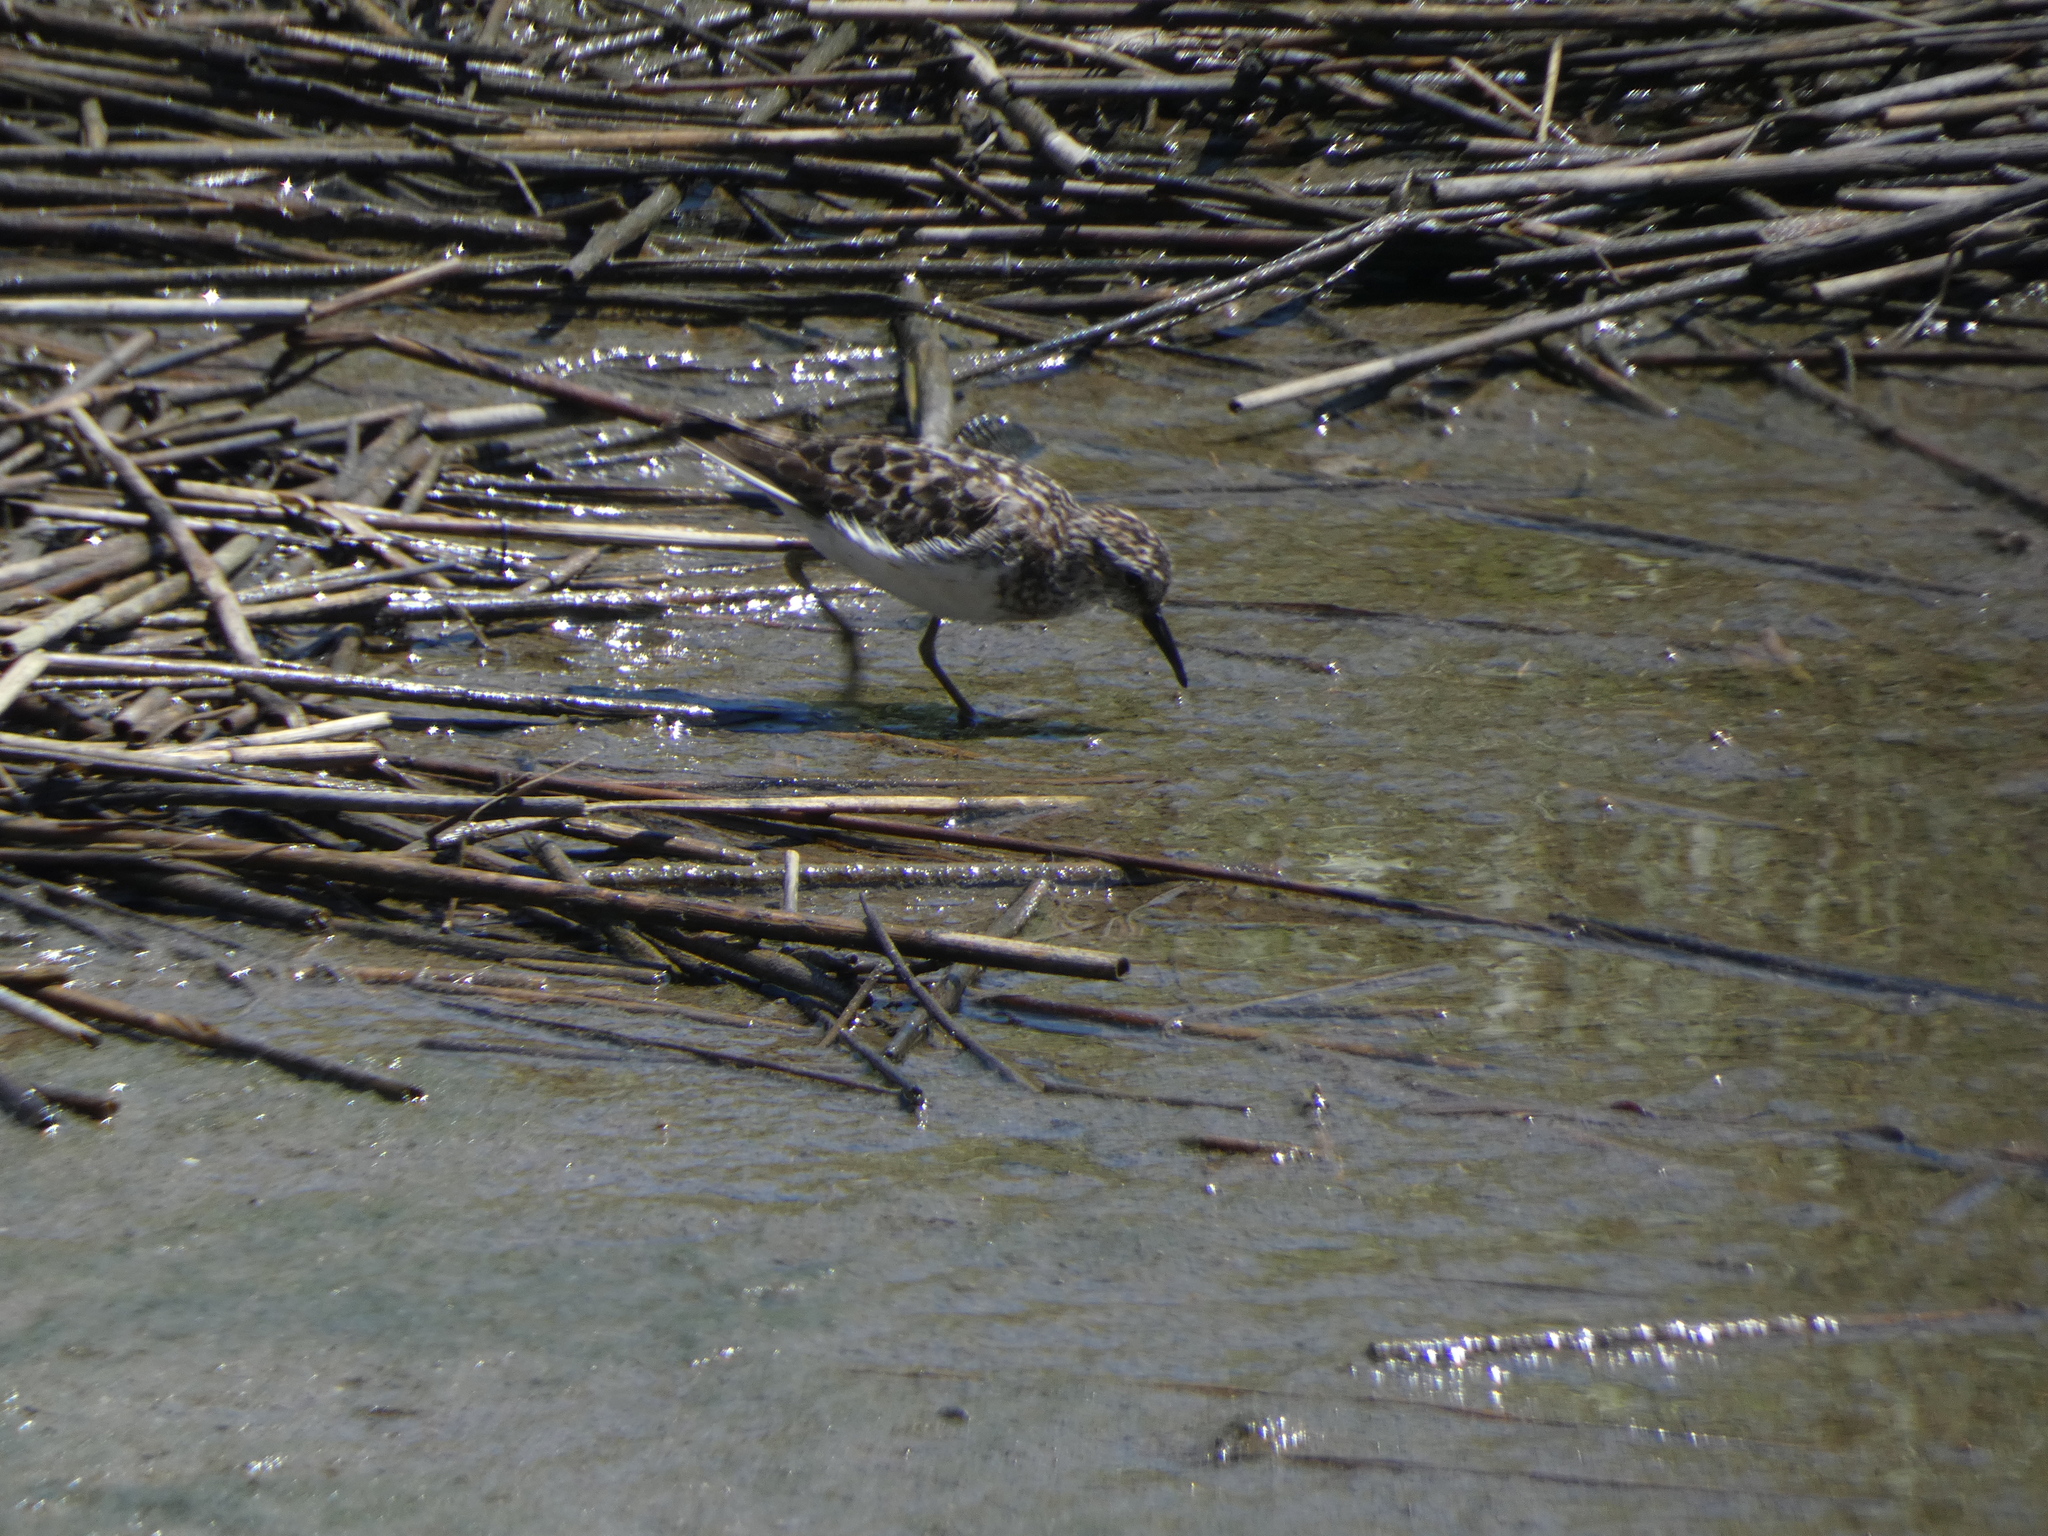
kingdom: Animalia
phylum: Chordata
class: Aves
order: Charadriiformes
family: Scolopacidae
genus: Calidris
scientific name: Calidris minutilla
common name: Least sandpiper
